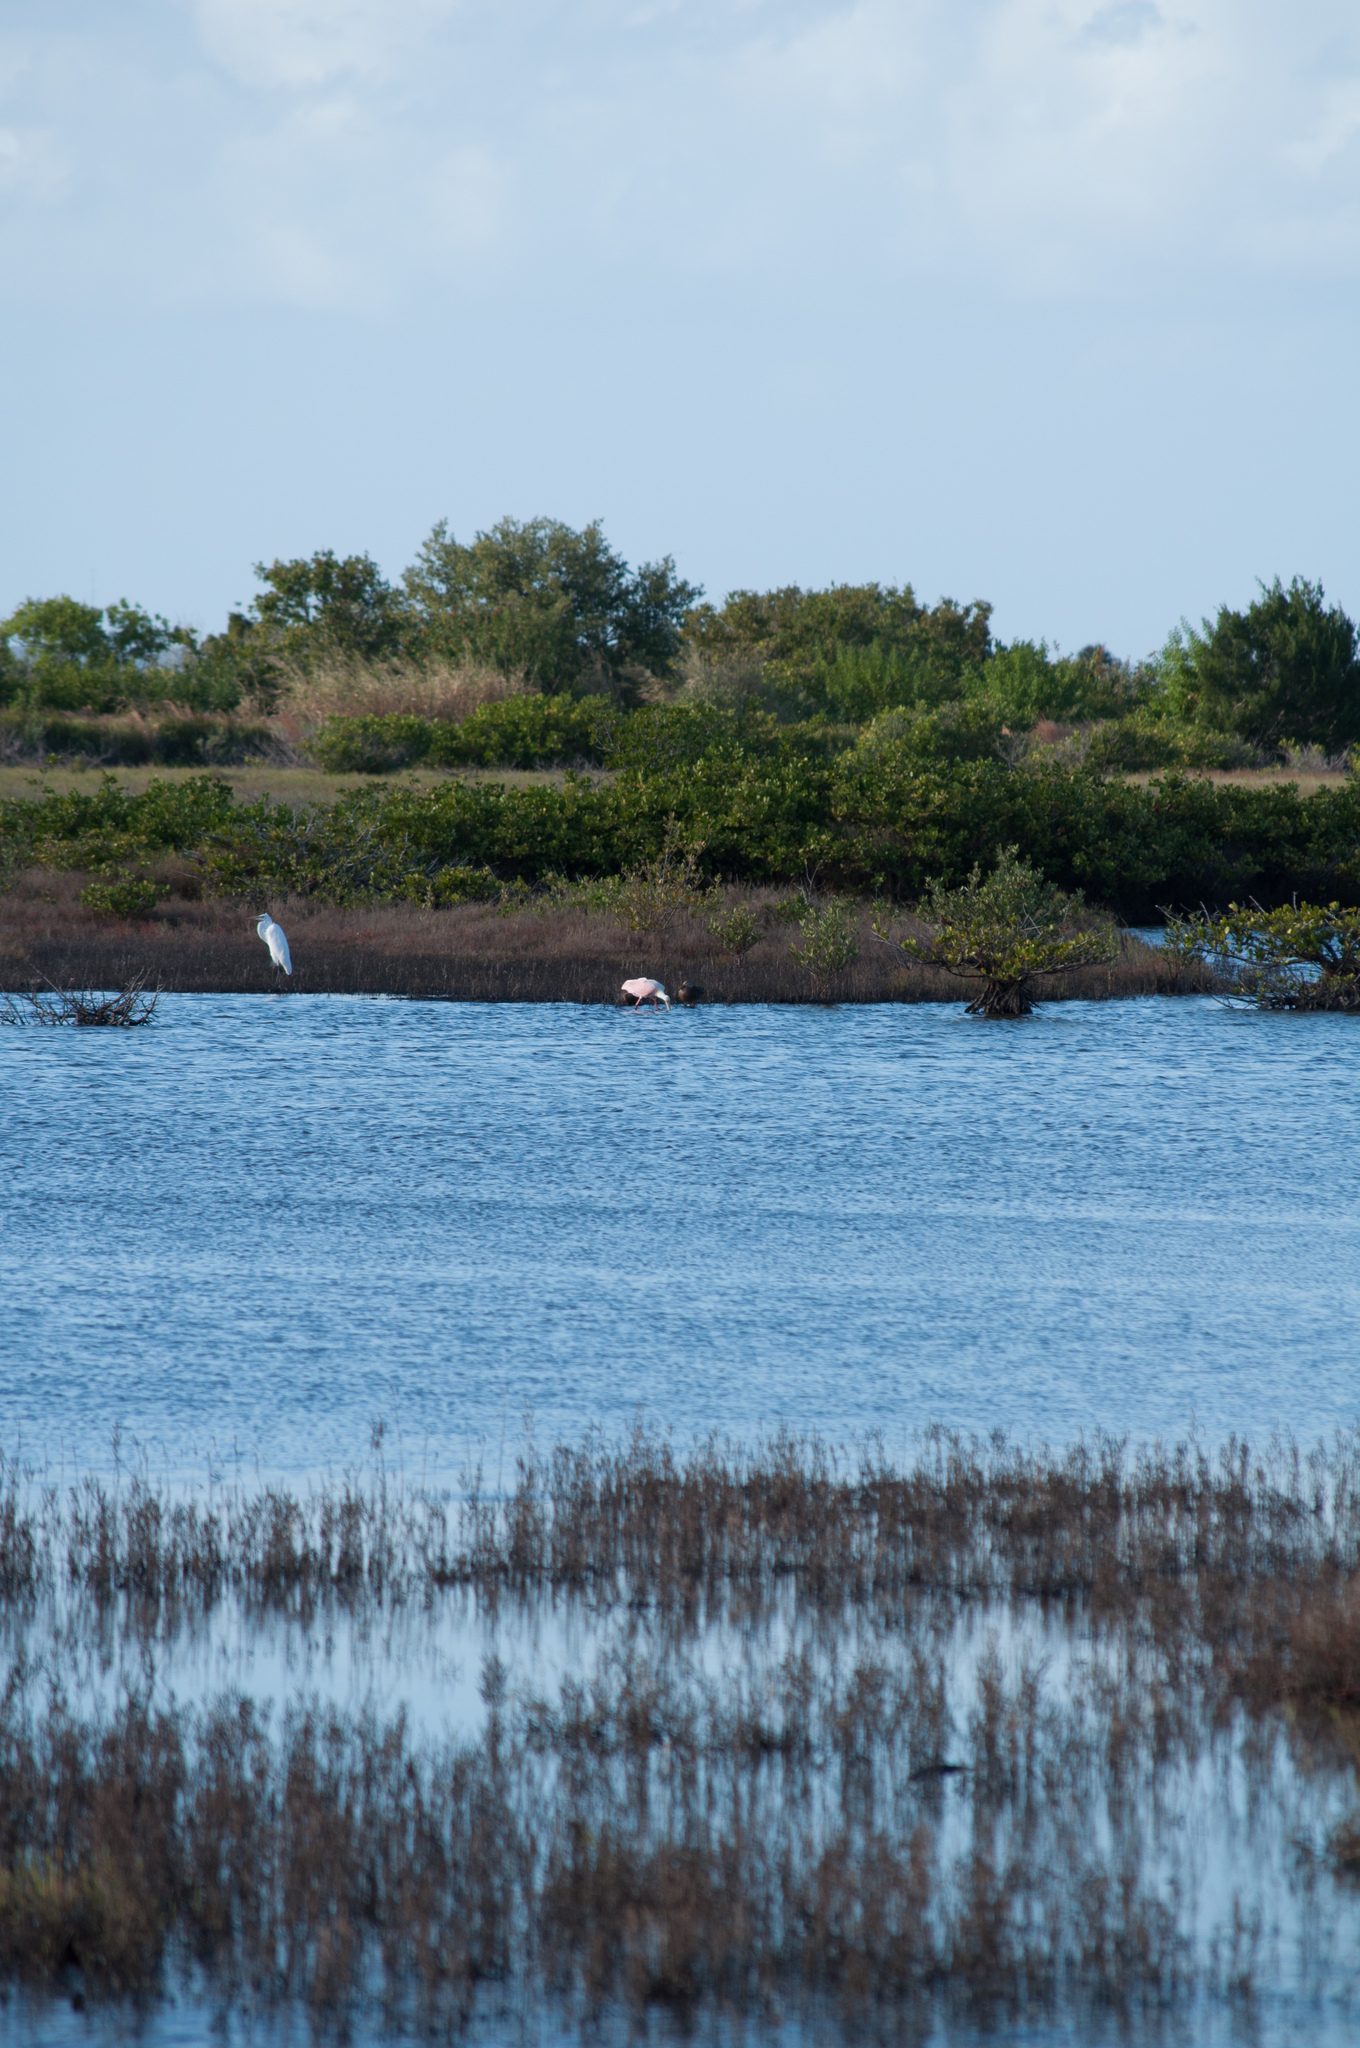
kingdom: Animalia
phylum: Chordata
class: Aves
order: Pelecaniformes
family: Ardeidae
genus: Ardea
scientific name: Ardea alba
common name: Great egret
